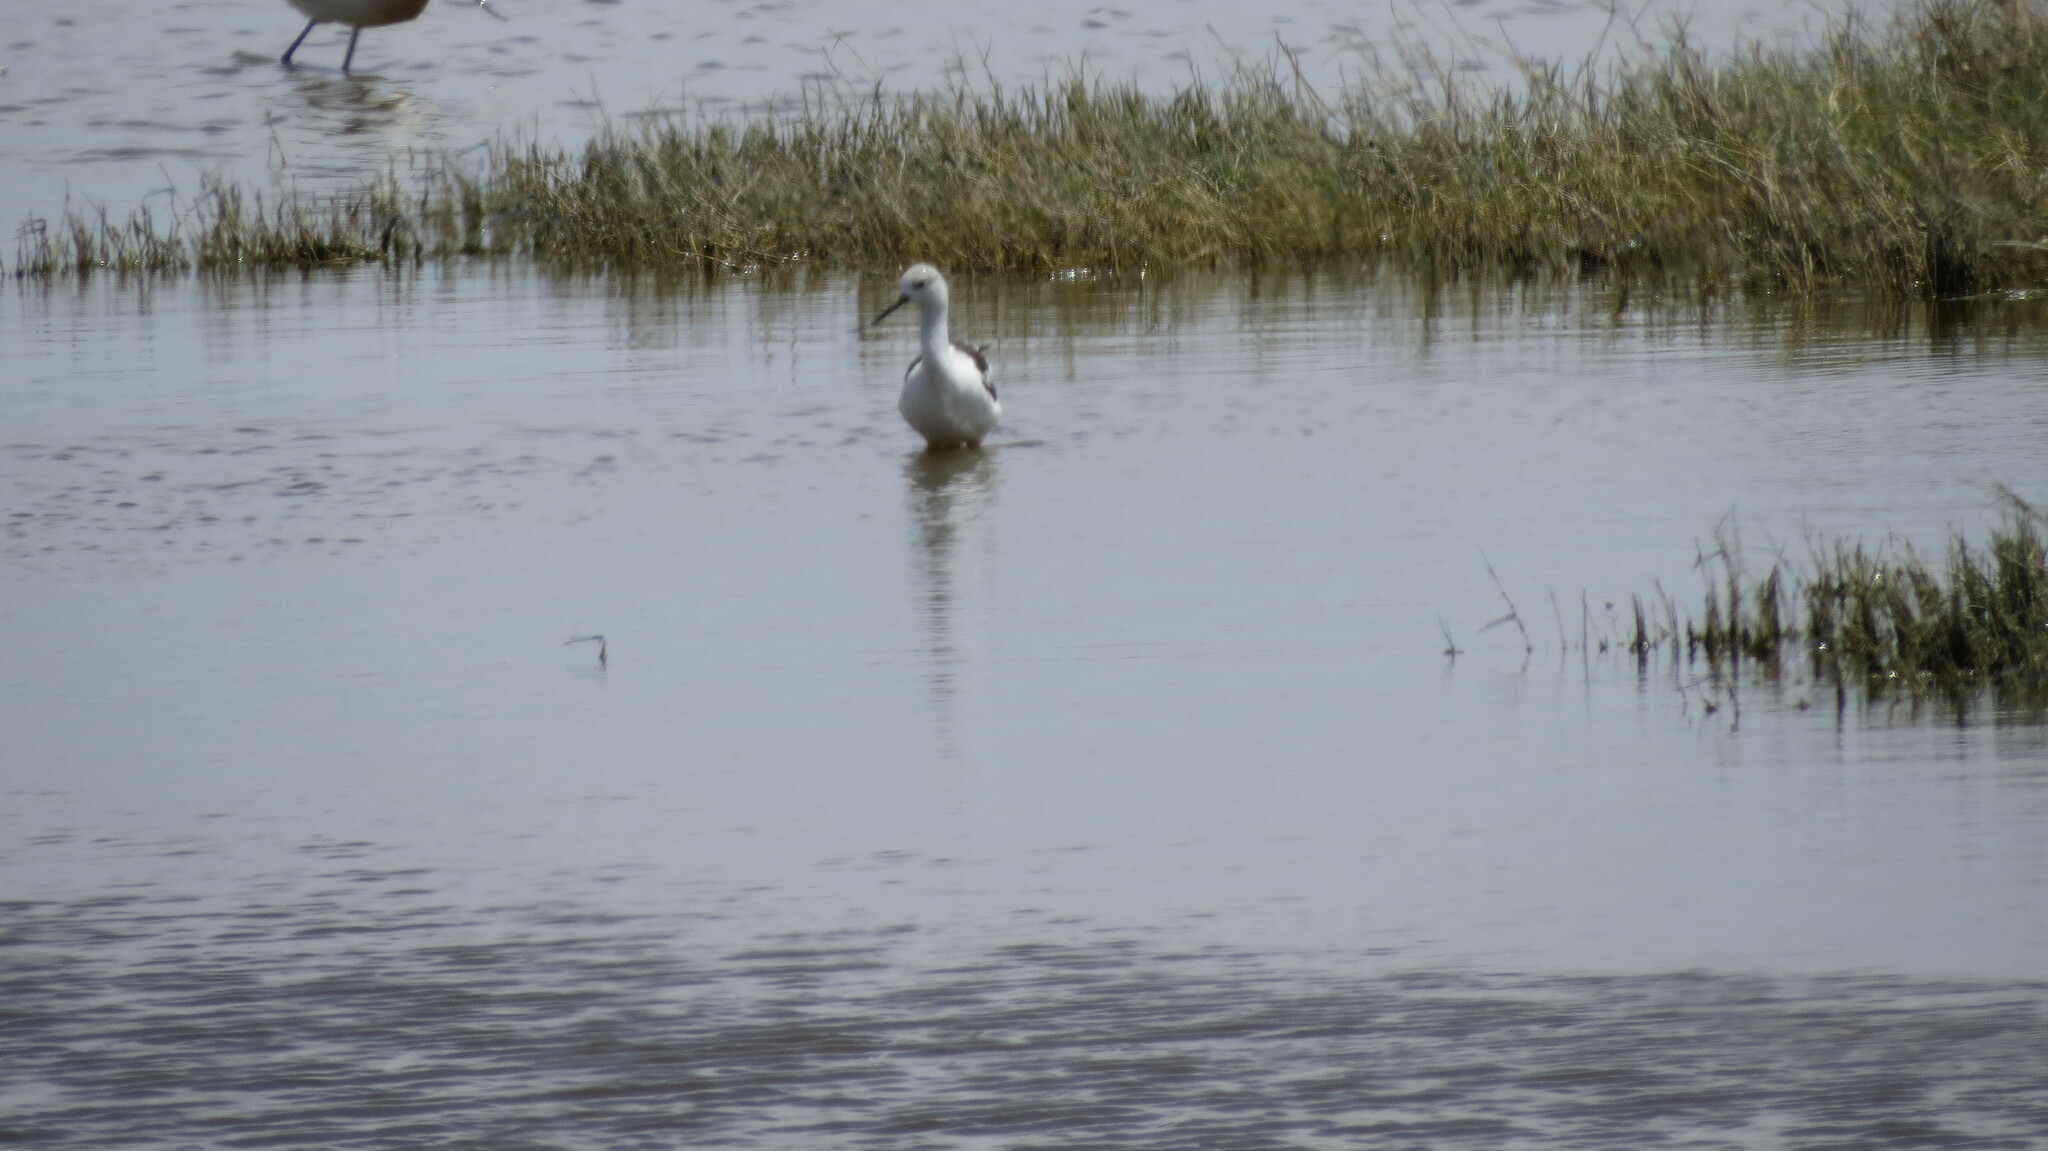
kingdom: Animalia
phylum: Chordata
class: Aves
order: Charadriiformes
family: Recurvirostridae
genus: Recurvirostra
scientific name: Recurvirostra americana
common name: American avocet
